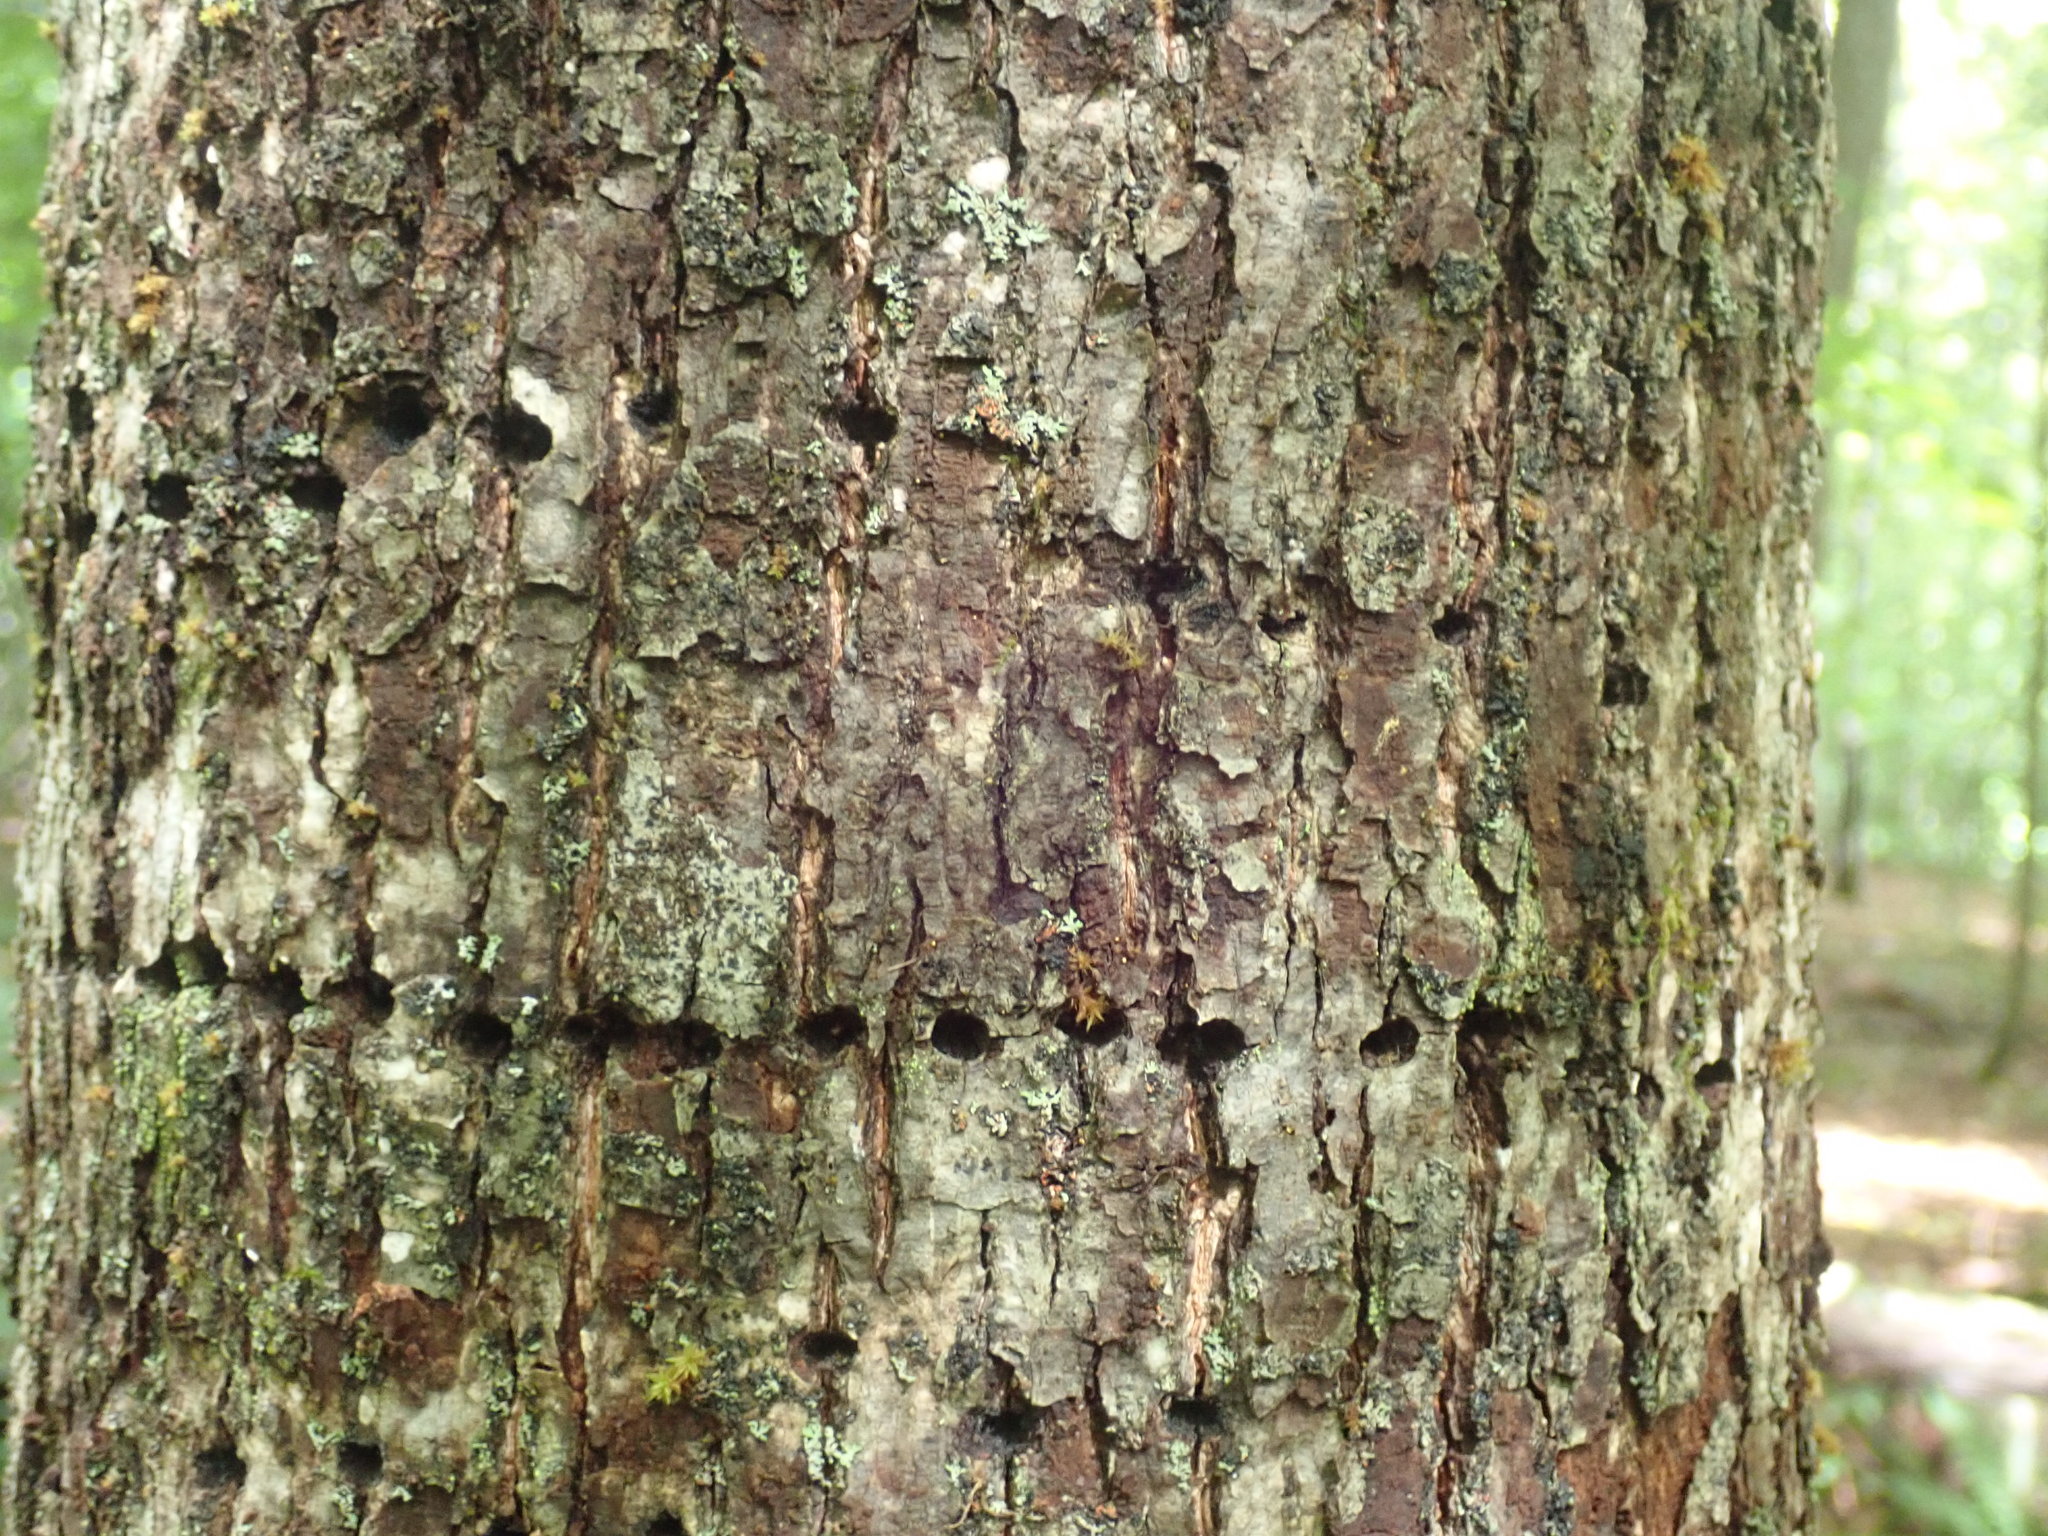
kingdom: Animalia
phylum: Chordata
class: Aves
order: Piciformes
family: Picidae
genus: Sphyrapicus
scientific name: Sphyrapicus varius
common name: Yellow-bellied sapsucker
